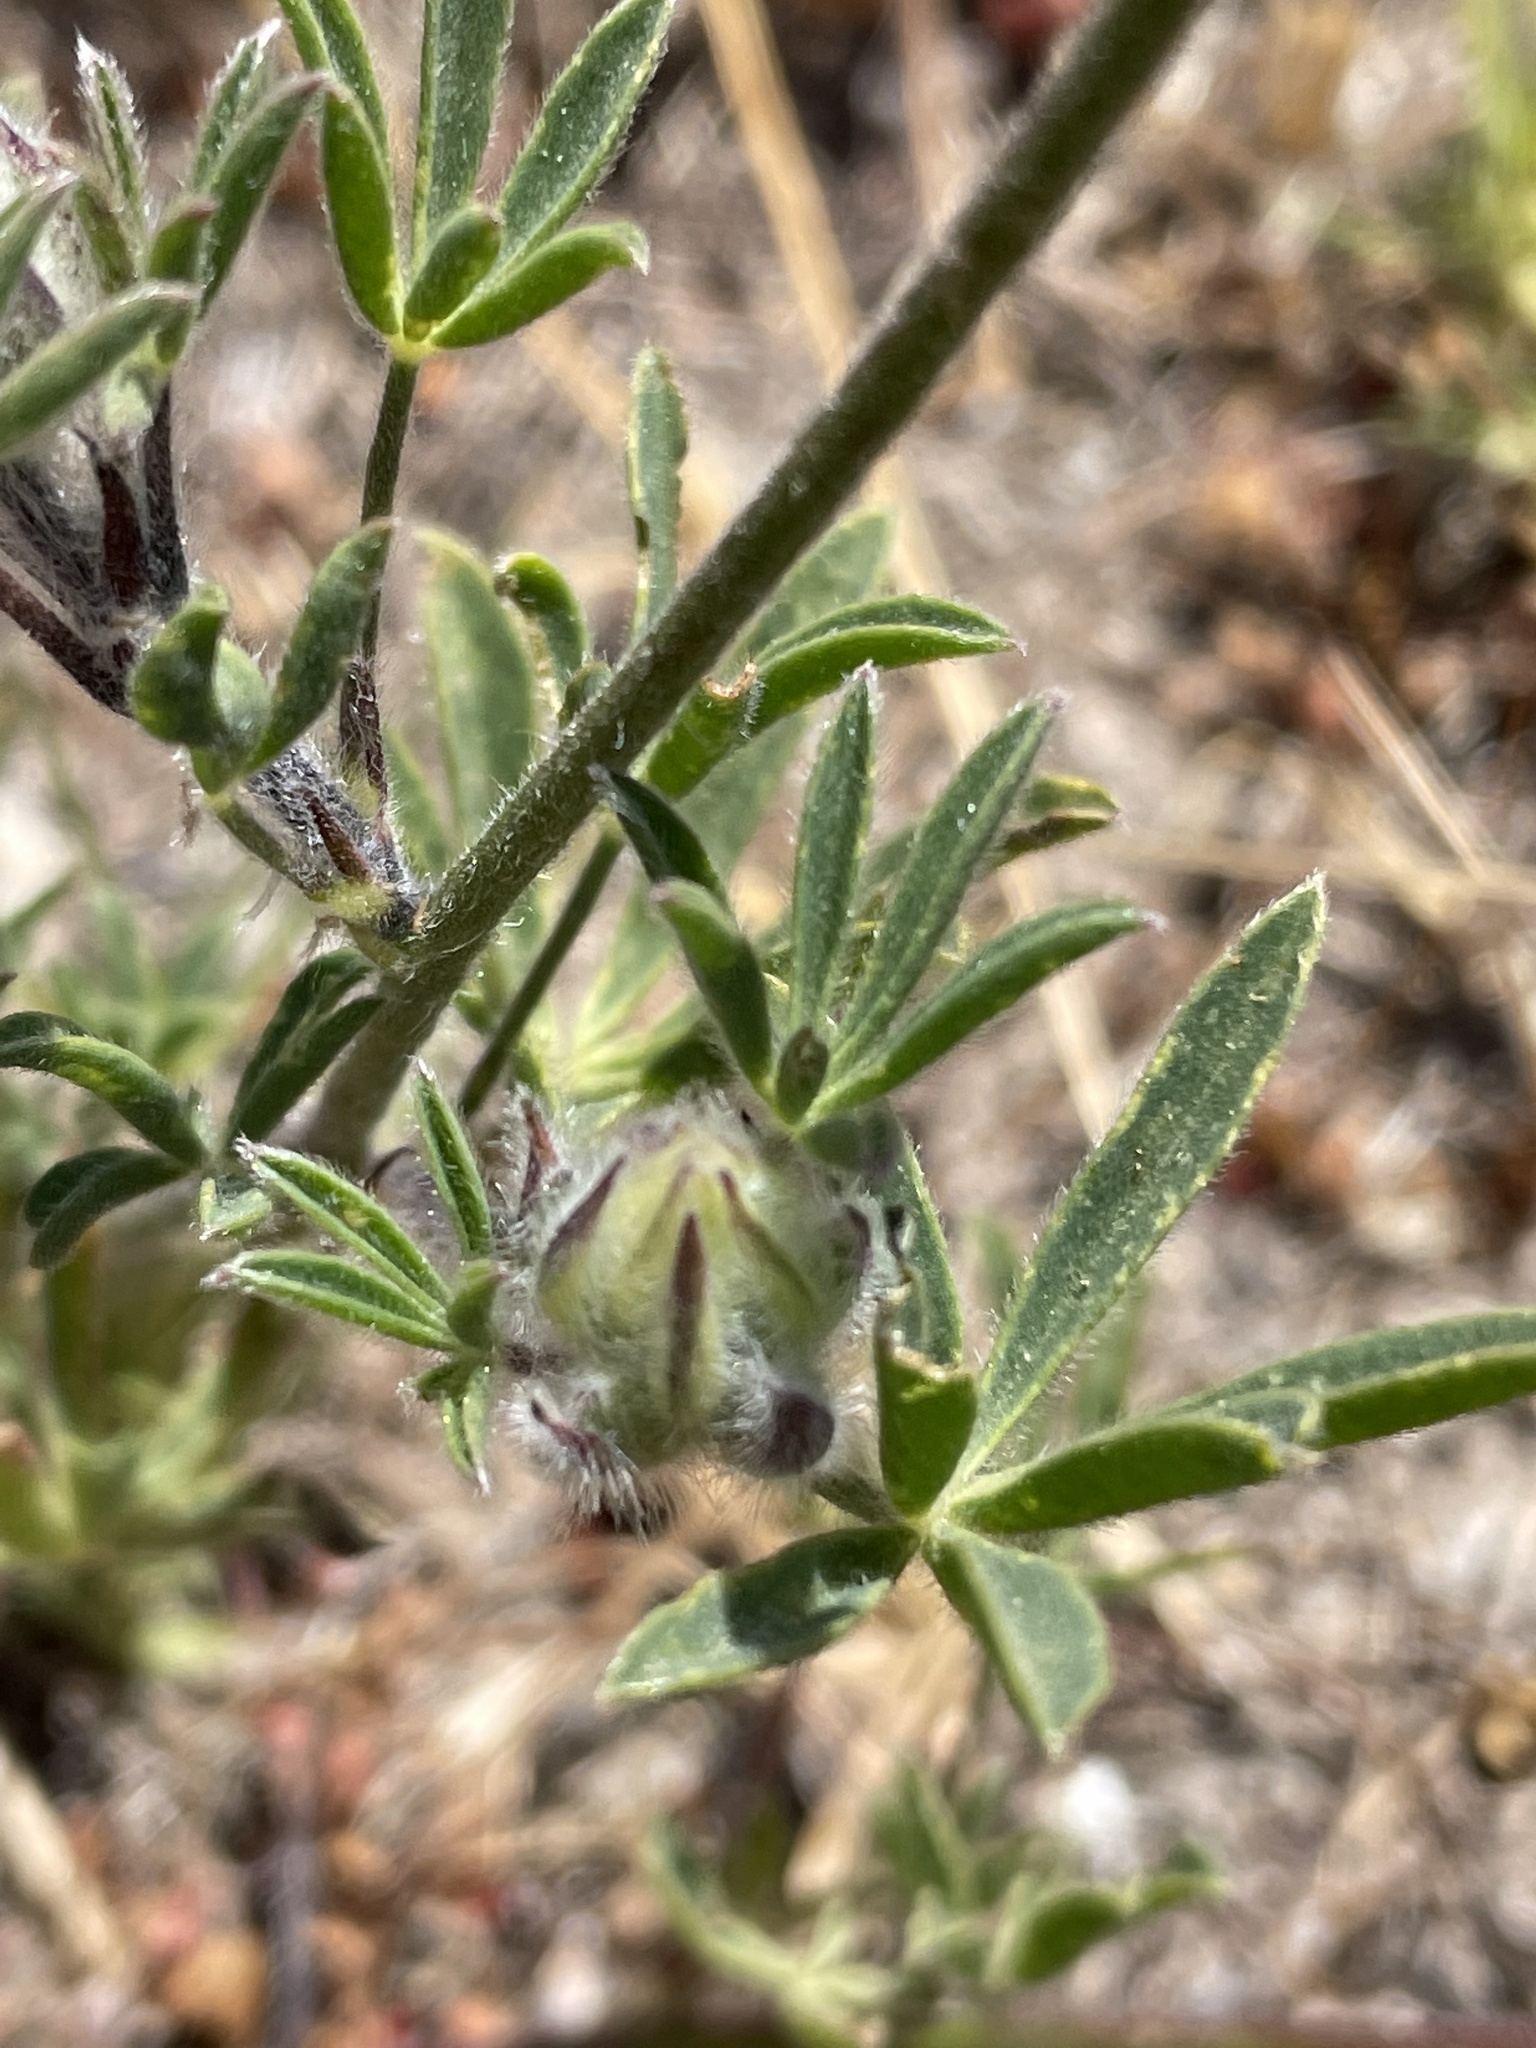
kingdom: Plantae
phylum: Tracheophyta
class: Magnoliopsida
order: Fabales
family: Fabaceae
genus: Lupinus
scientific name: Lupinus nanus
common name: Orean blue lupin
